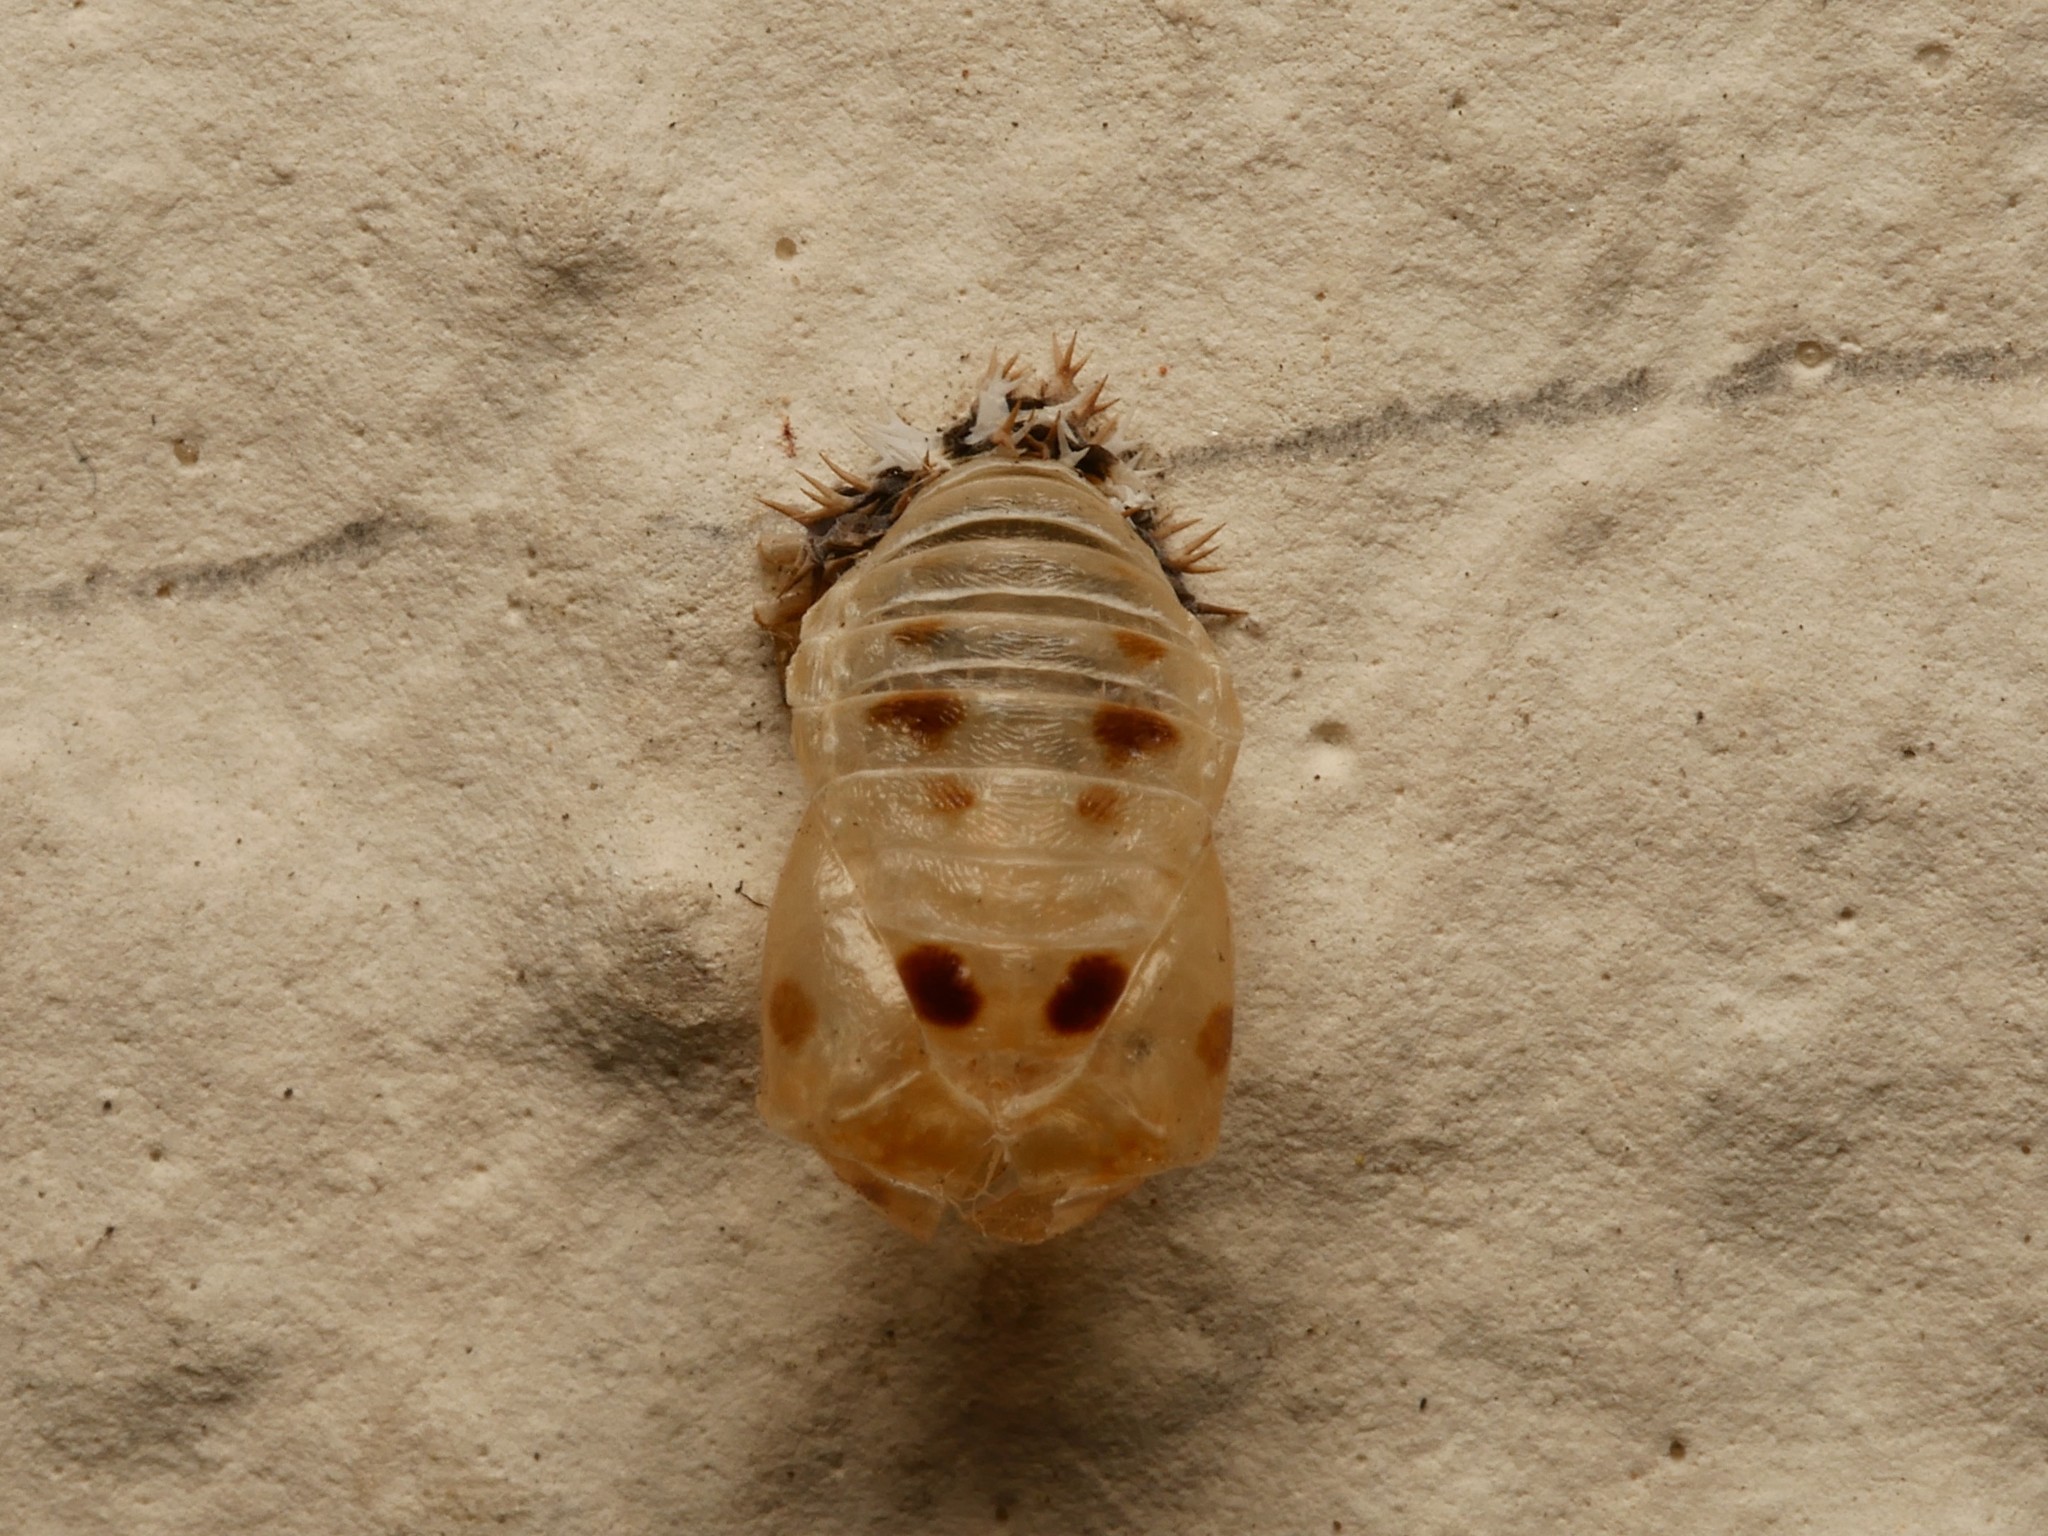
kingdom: Animalia
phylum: Arthropoda
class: Insecta
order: Coleoptera
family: Coccinellidae
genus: Harmonia
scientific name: Harmonia axyridis
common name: Harlequin ladybird
